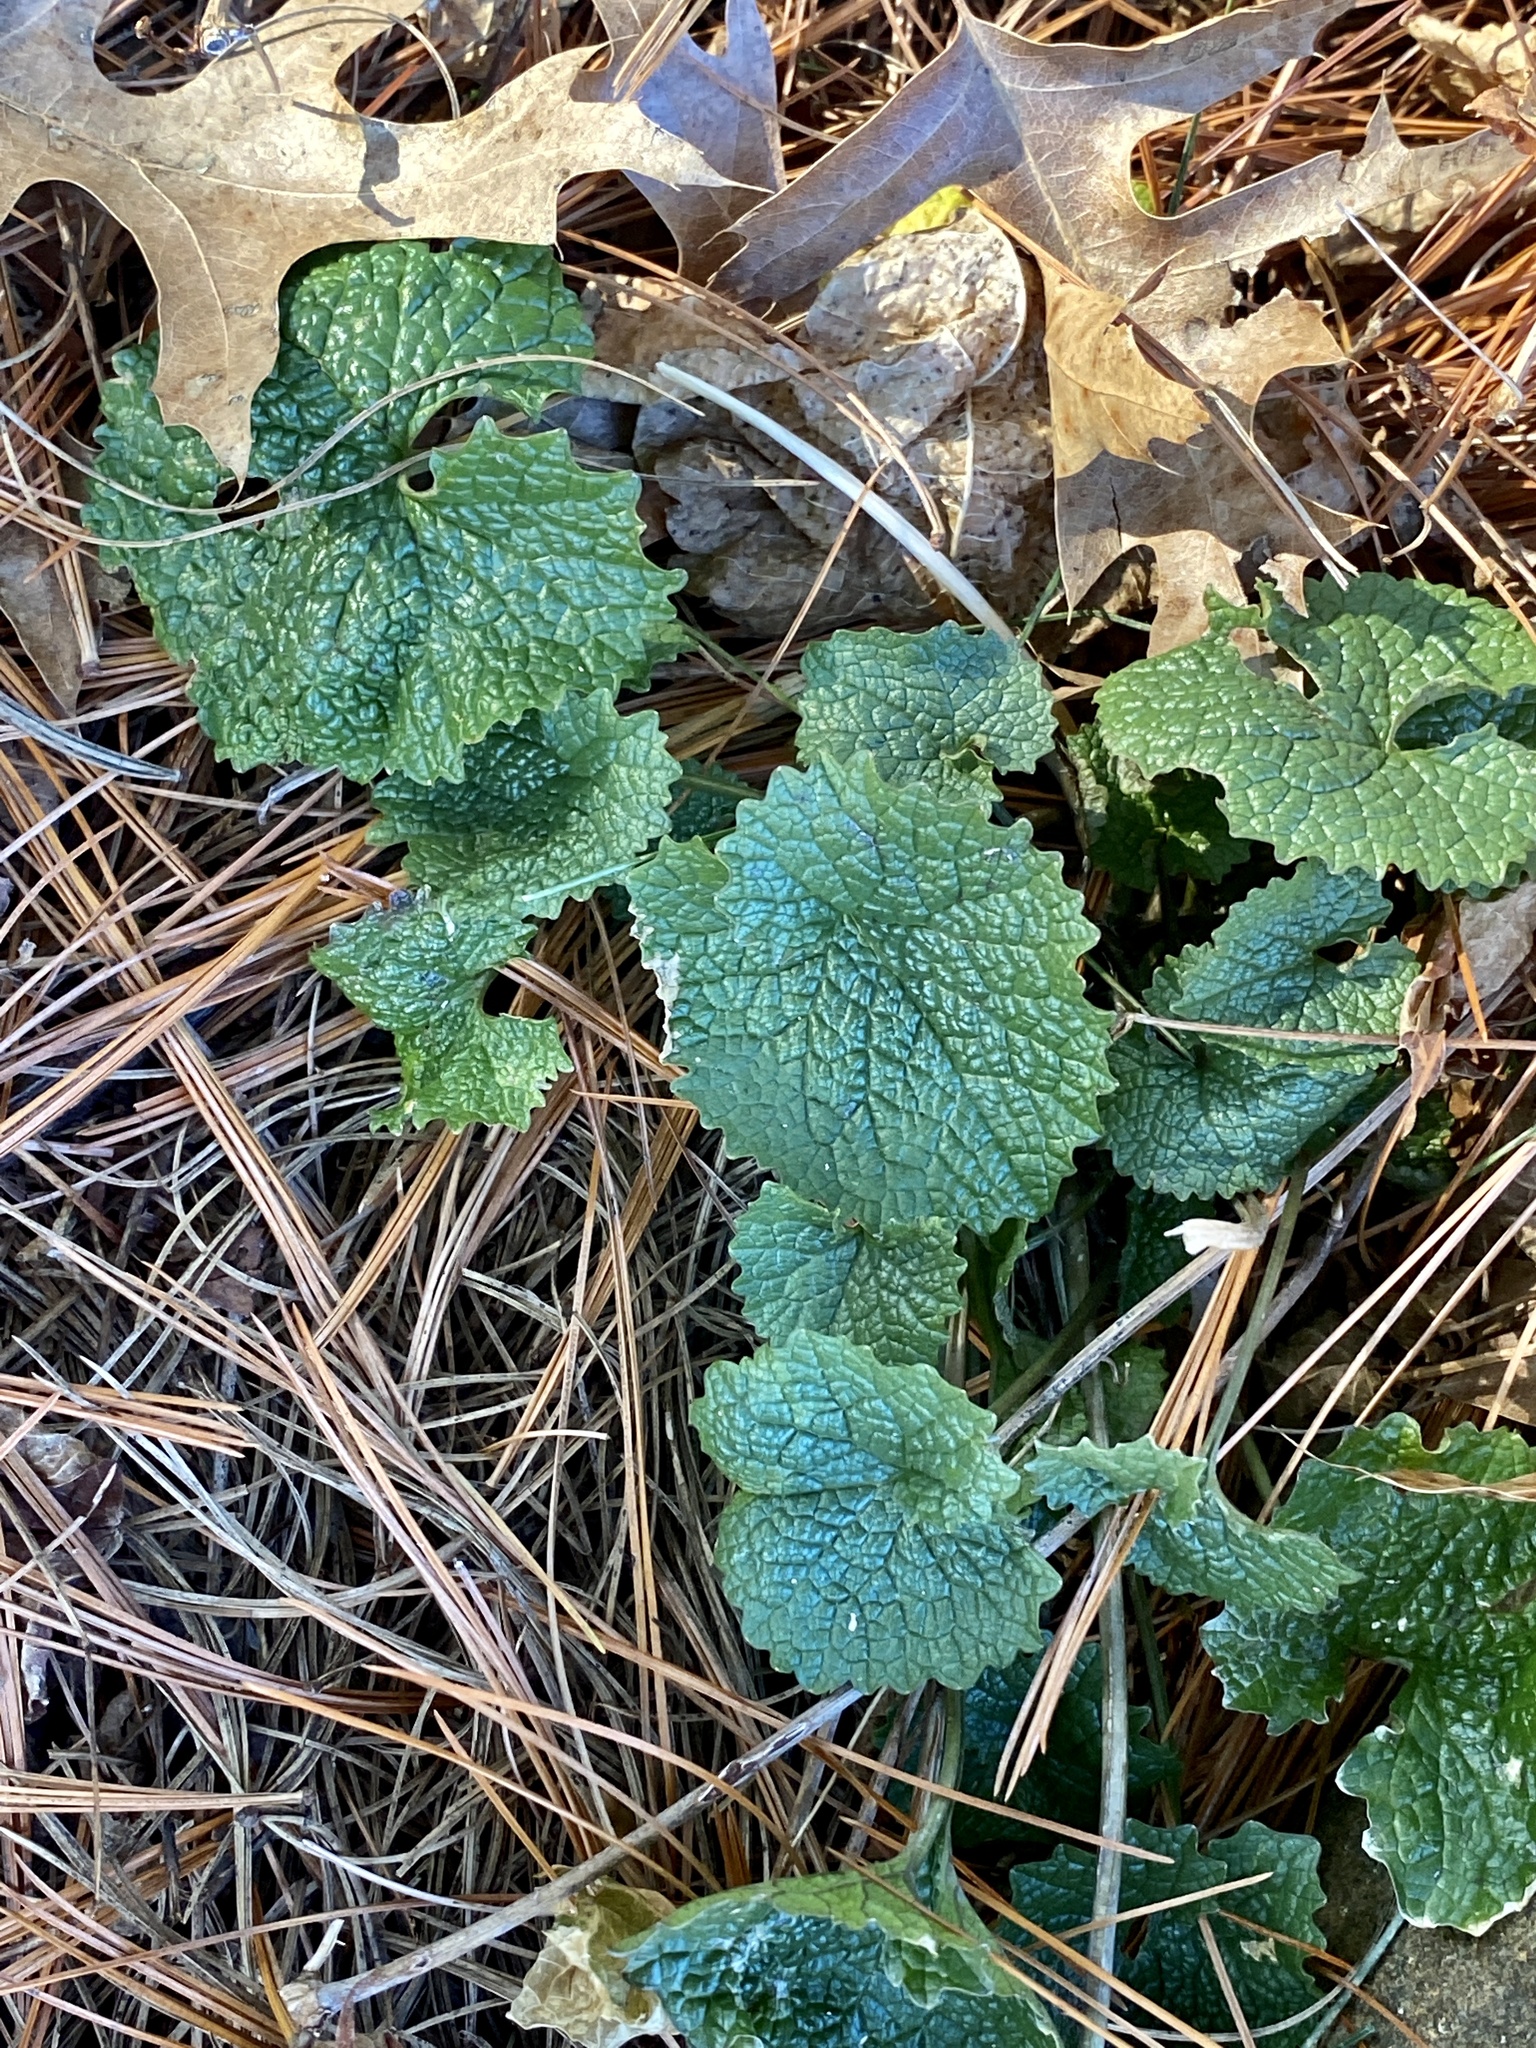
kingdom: Plantae
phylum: Tracheophyta
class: Magnoliopsida
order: Brassicales
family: Brassicaceae
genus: Alliaria
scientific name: Alliaria petiolata
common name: Garlic mustard
